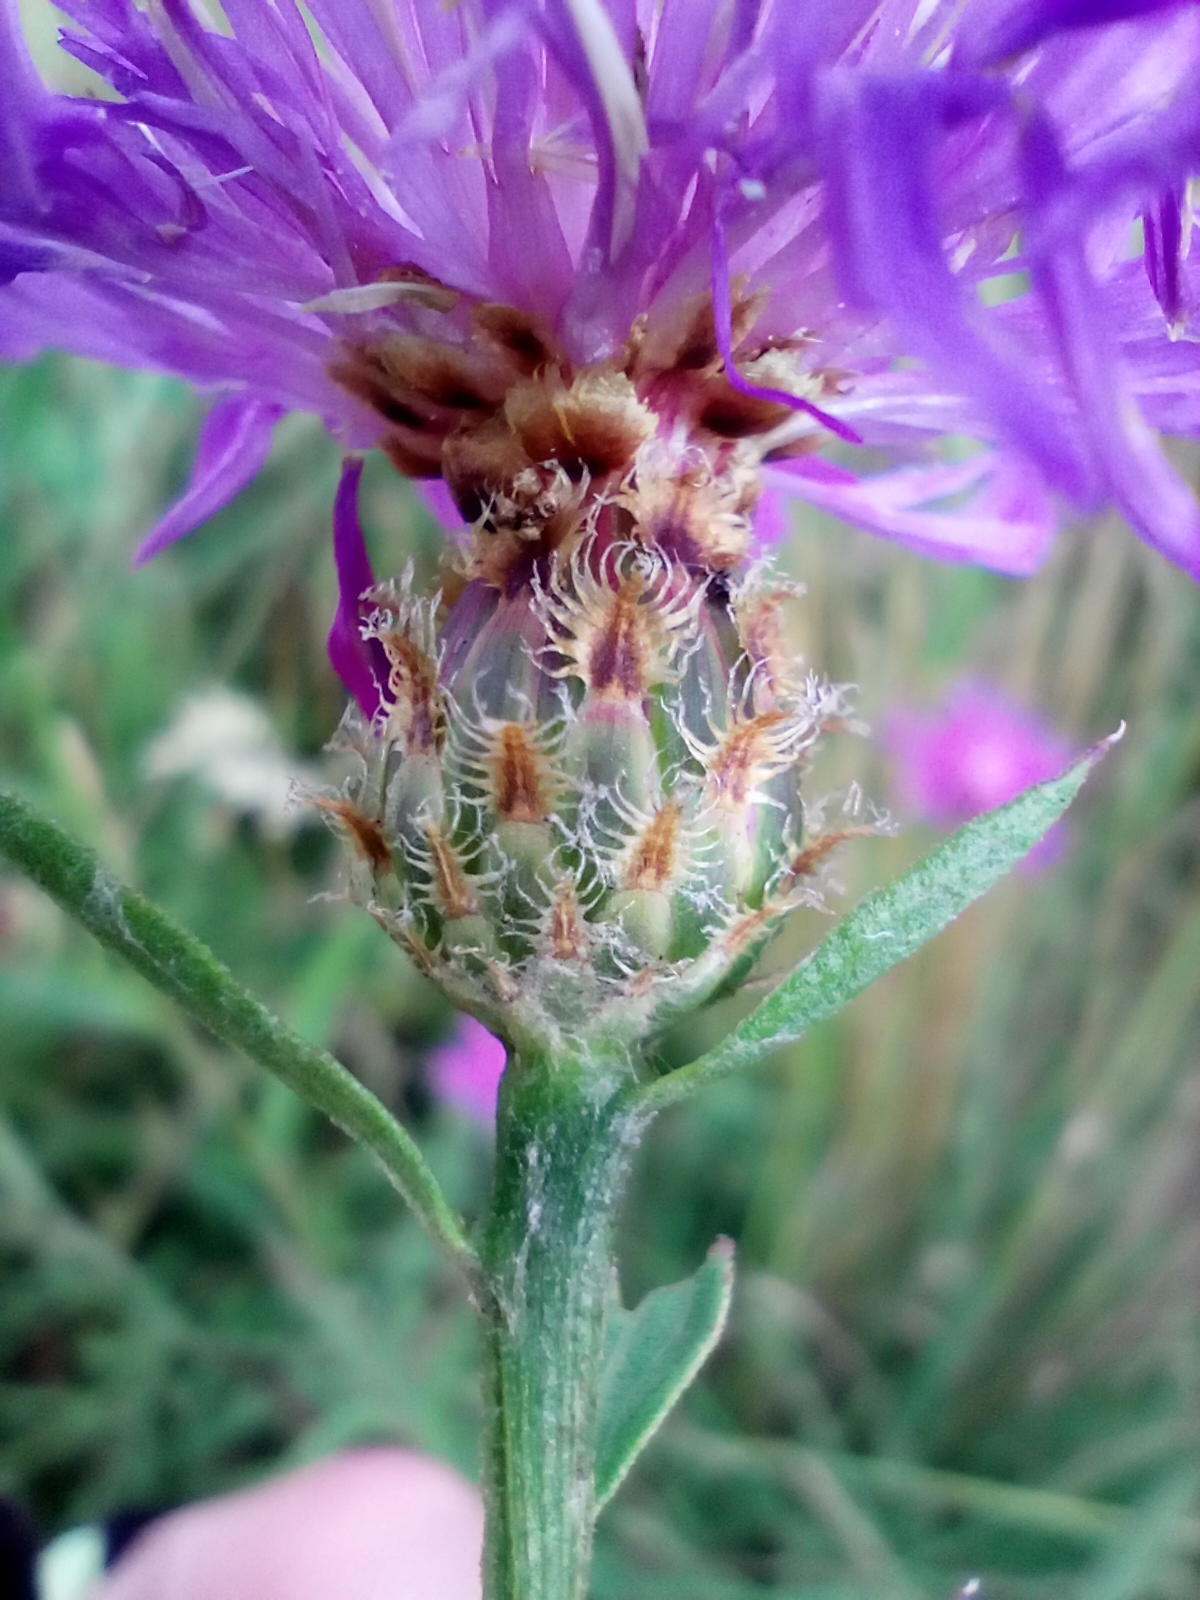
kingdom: Plantae
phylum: Tracheophyta
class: Magnoliopsida
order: Asterales
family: Asteraceae
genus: Centaurea
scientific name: Centaurea fleischeri
